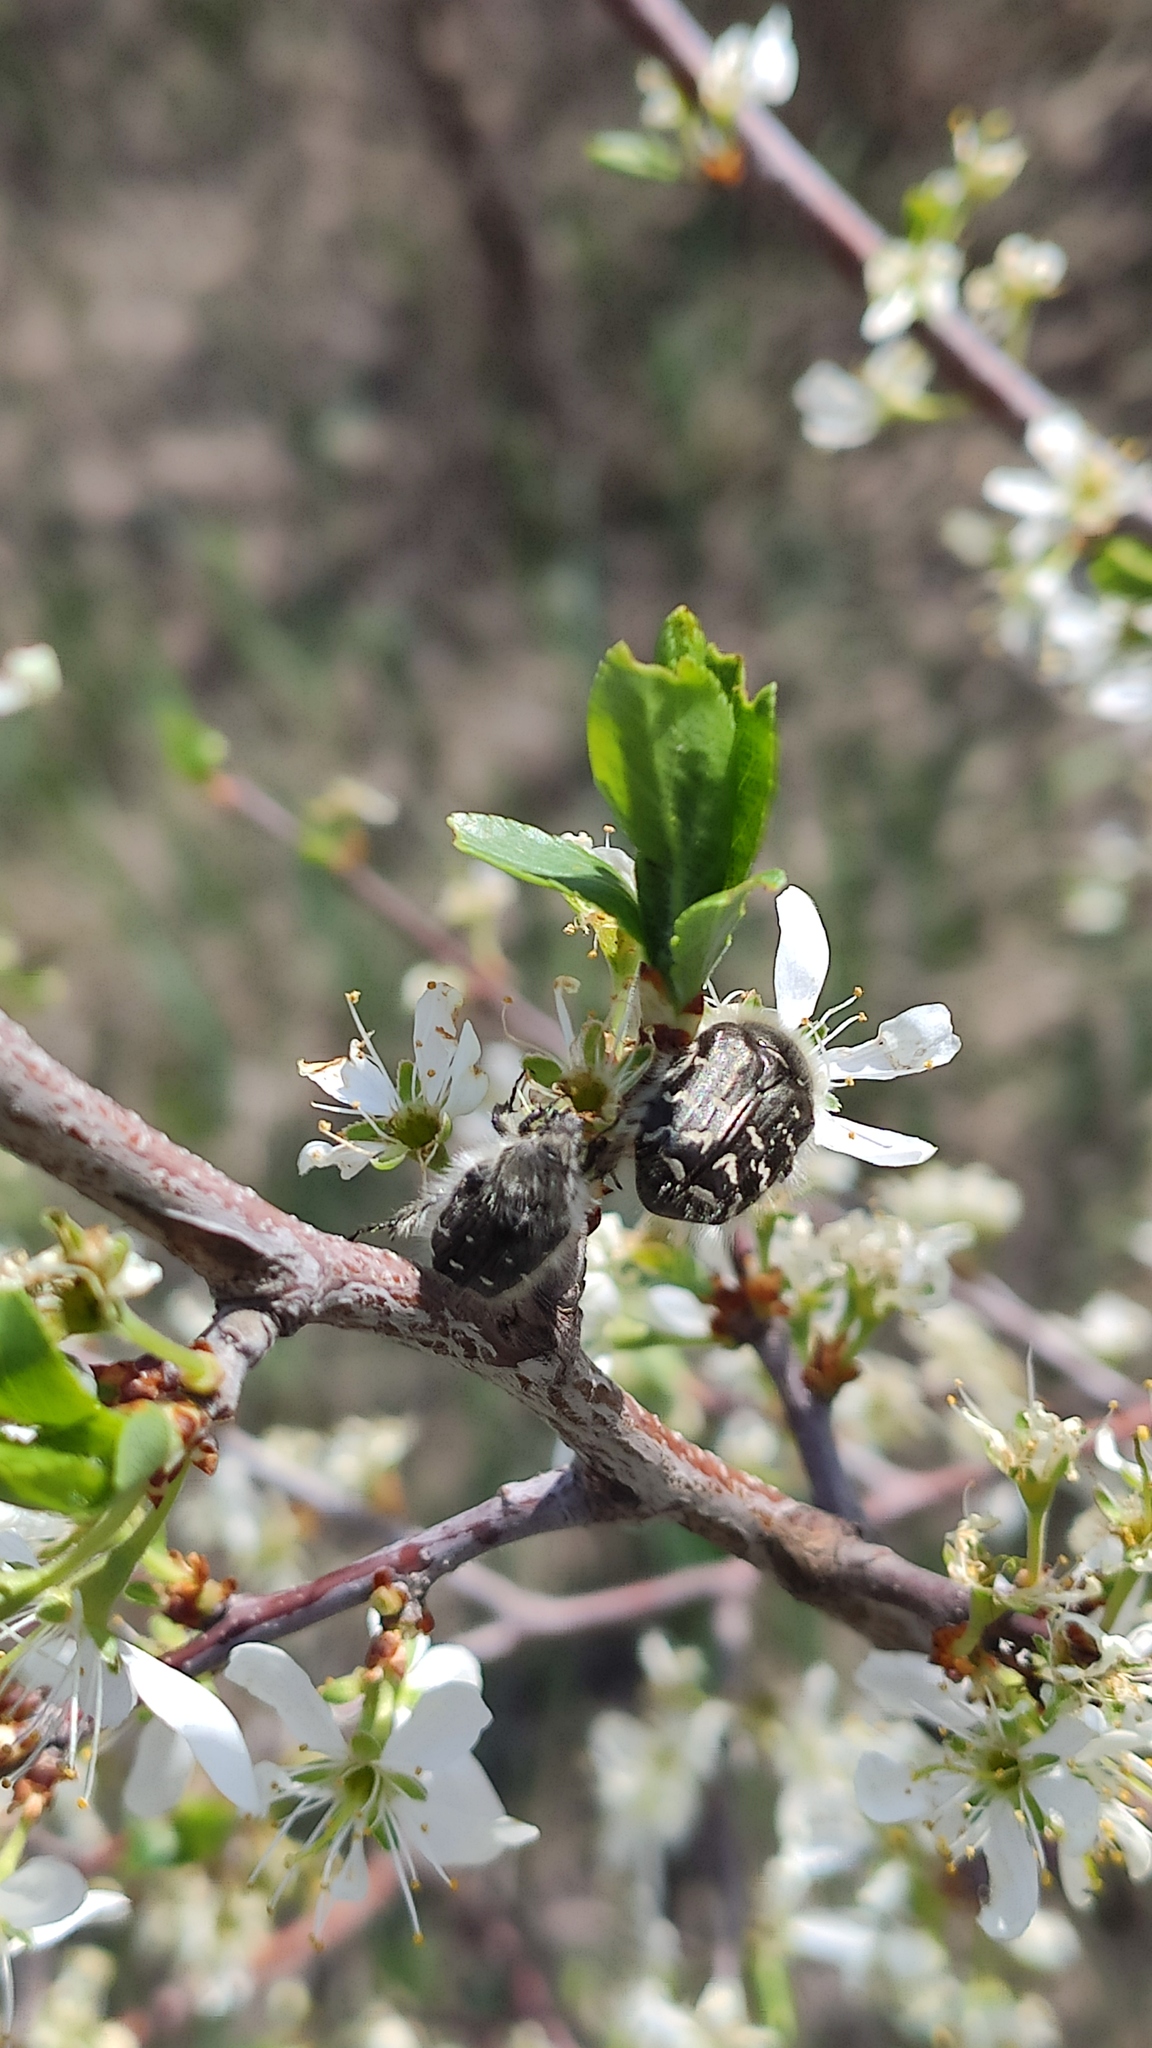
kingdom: Animalia
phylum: Arthropoda
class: Insecta
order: Coleoptera
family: Scarabaeidae
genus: Oxythyrea
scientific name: Oxythyrea funesta
